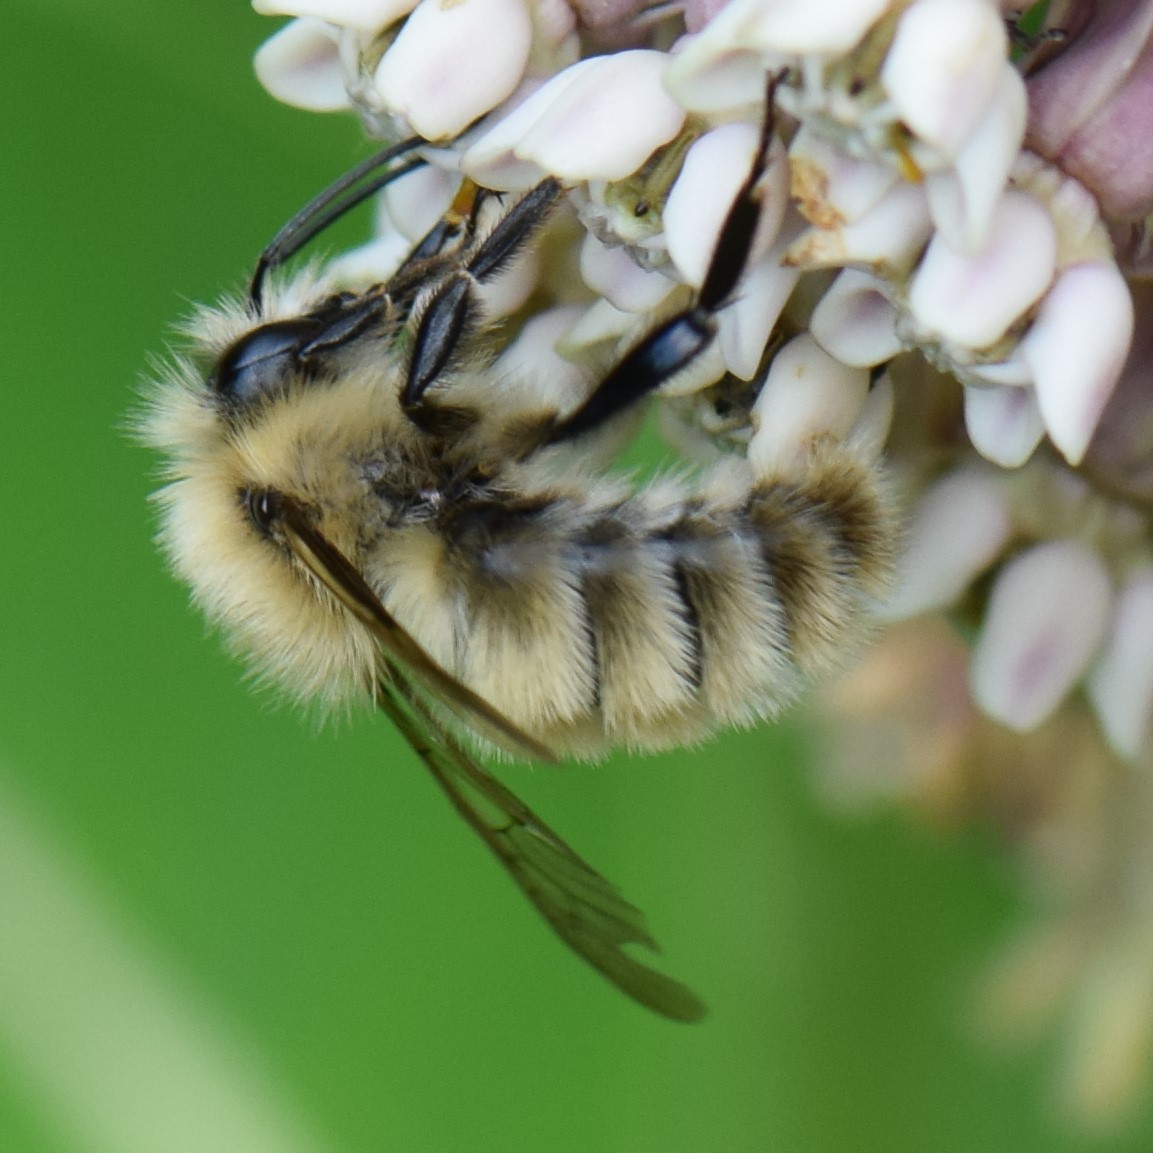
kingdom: Animalia
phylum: Arthropoda
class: Insecta
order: Hymenoptera
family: Apidae
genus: Bombus
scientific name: Bombus perplexus
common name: Confusing bumble bee
